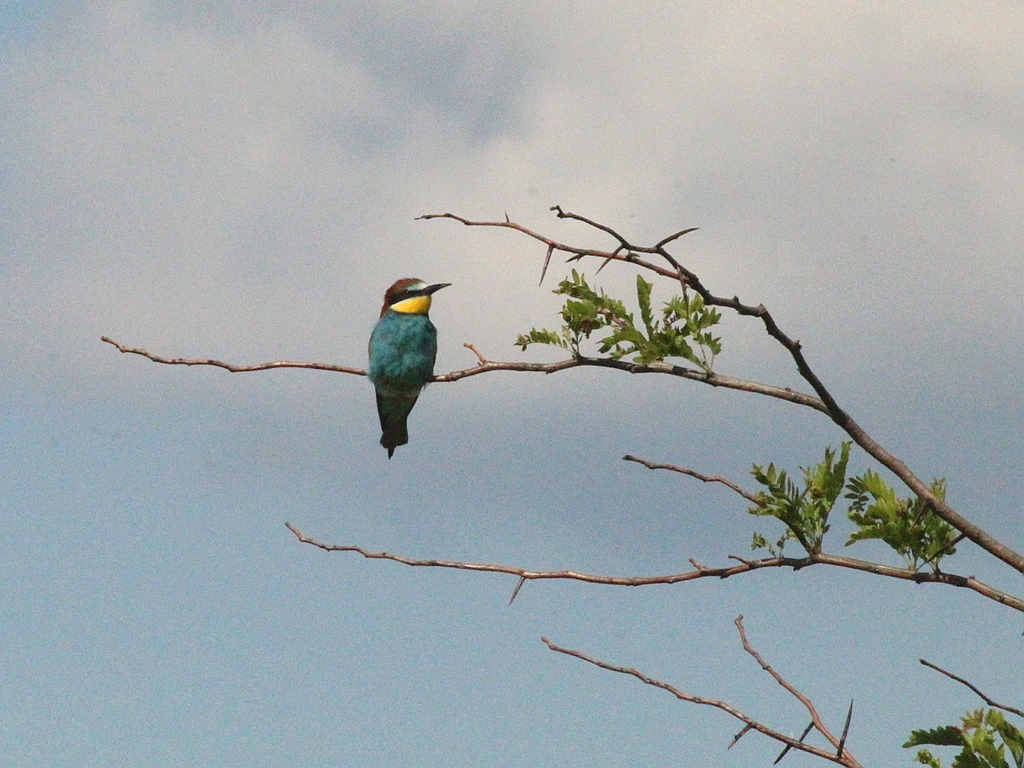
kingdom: Animalia
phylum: Chordata
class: Aves
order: Coraciiformes
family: Meropidae
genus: Merops
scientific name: Merops apiaster
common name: European bee-eater
